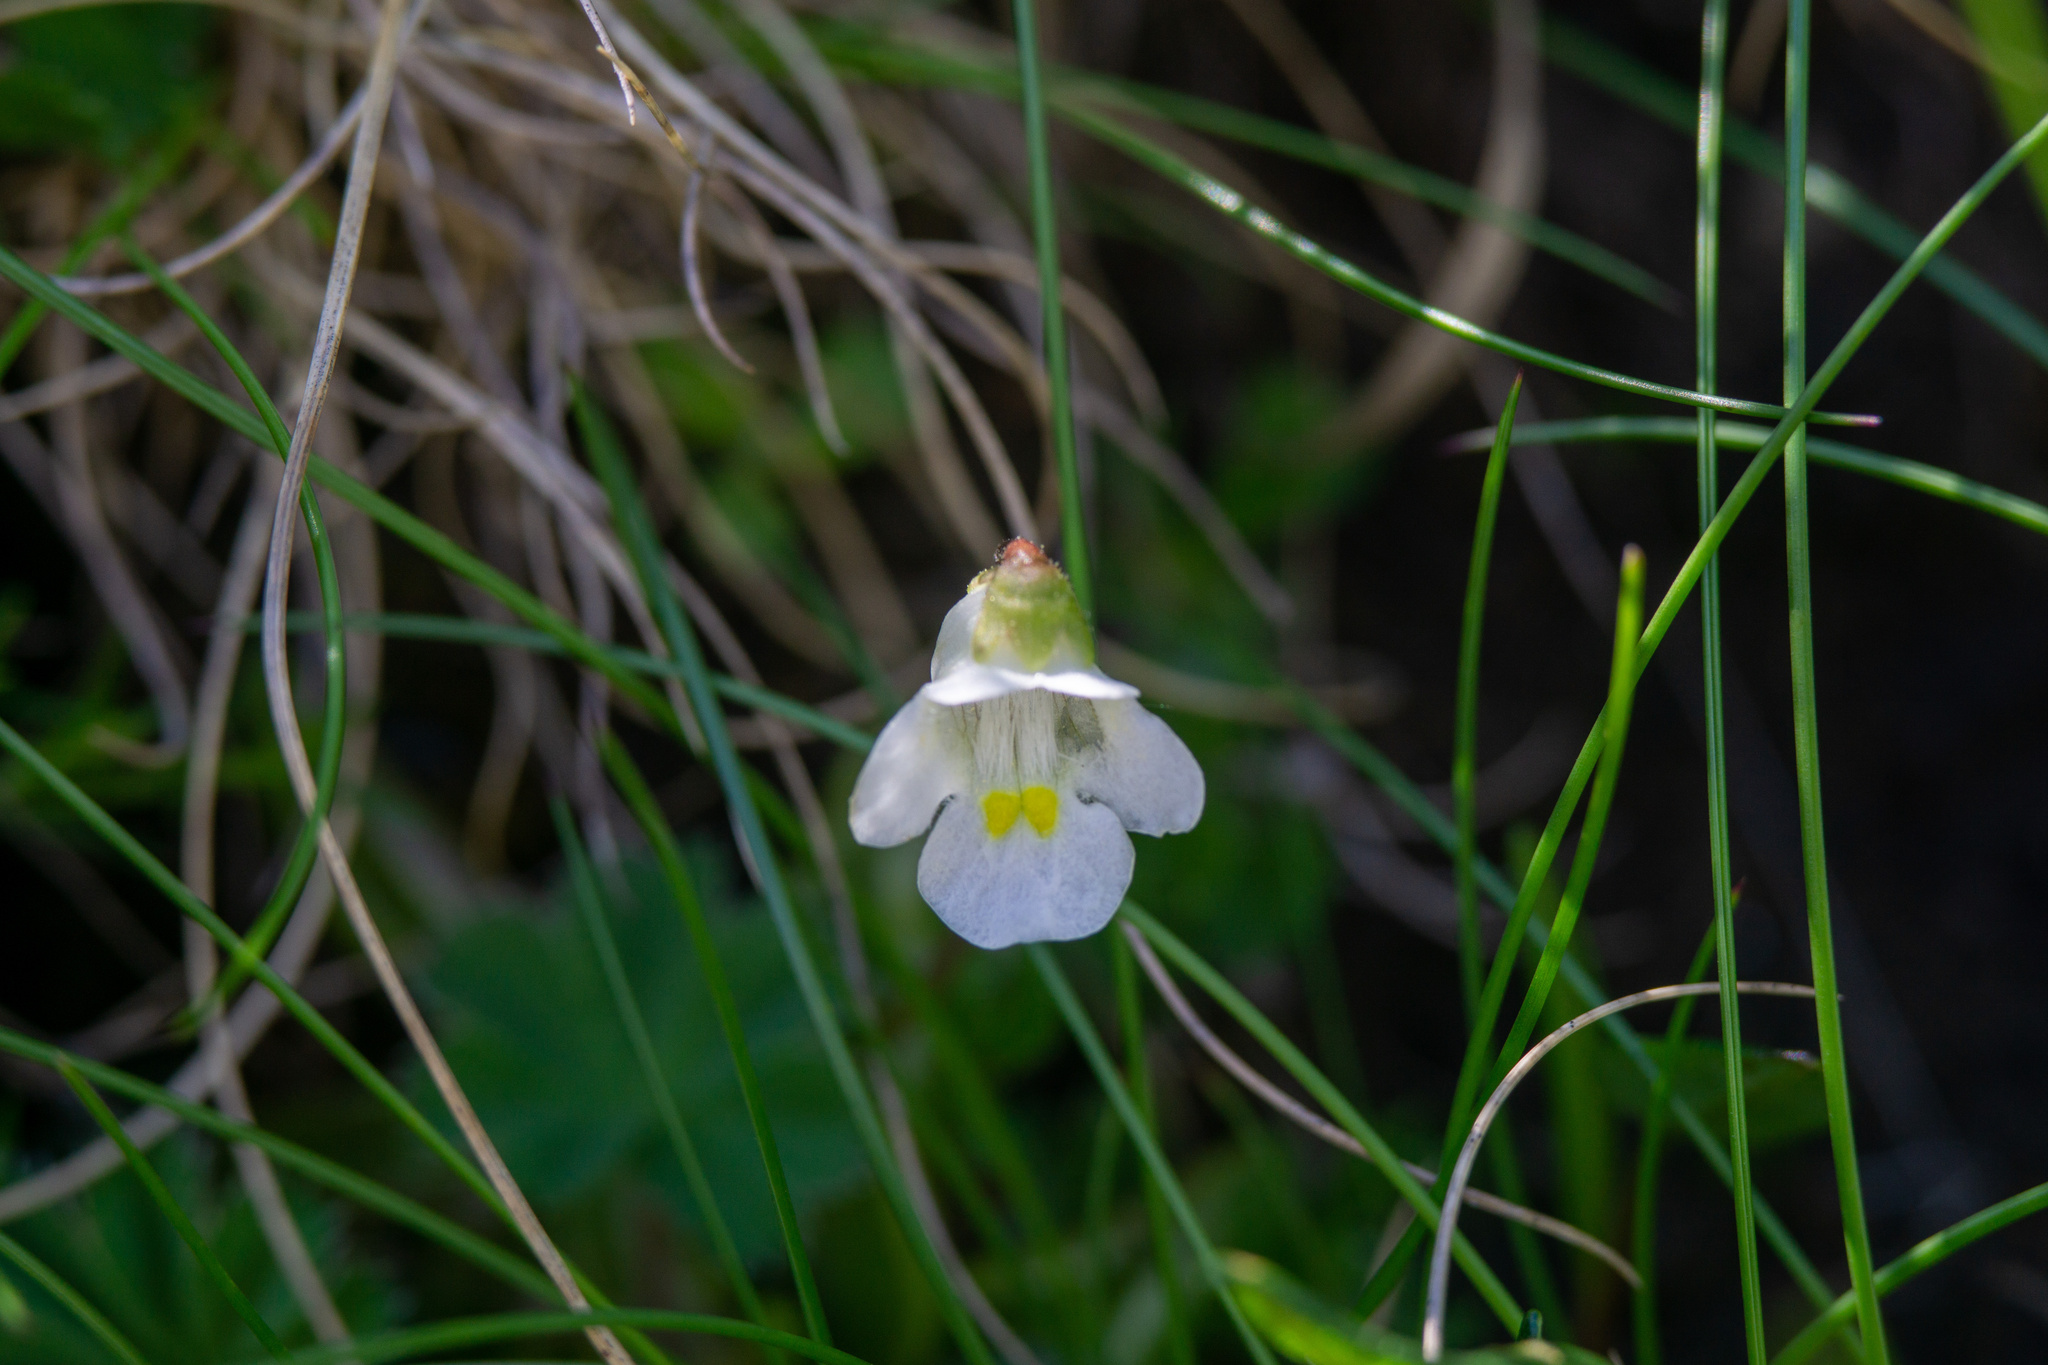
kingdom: Plantae
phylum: Tracheophyta
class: Magnoliopsida
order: Lamiales
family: Lentibulariaceae
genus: Pinguicula
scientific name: Pinguicula alpina
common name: Alpine butterwort
